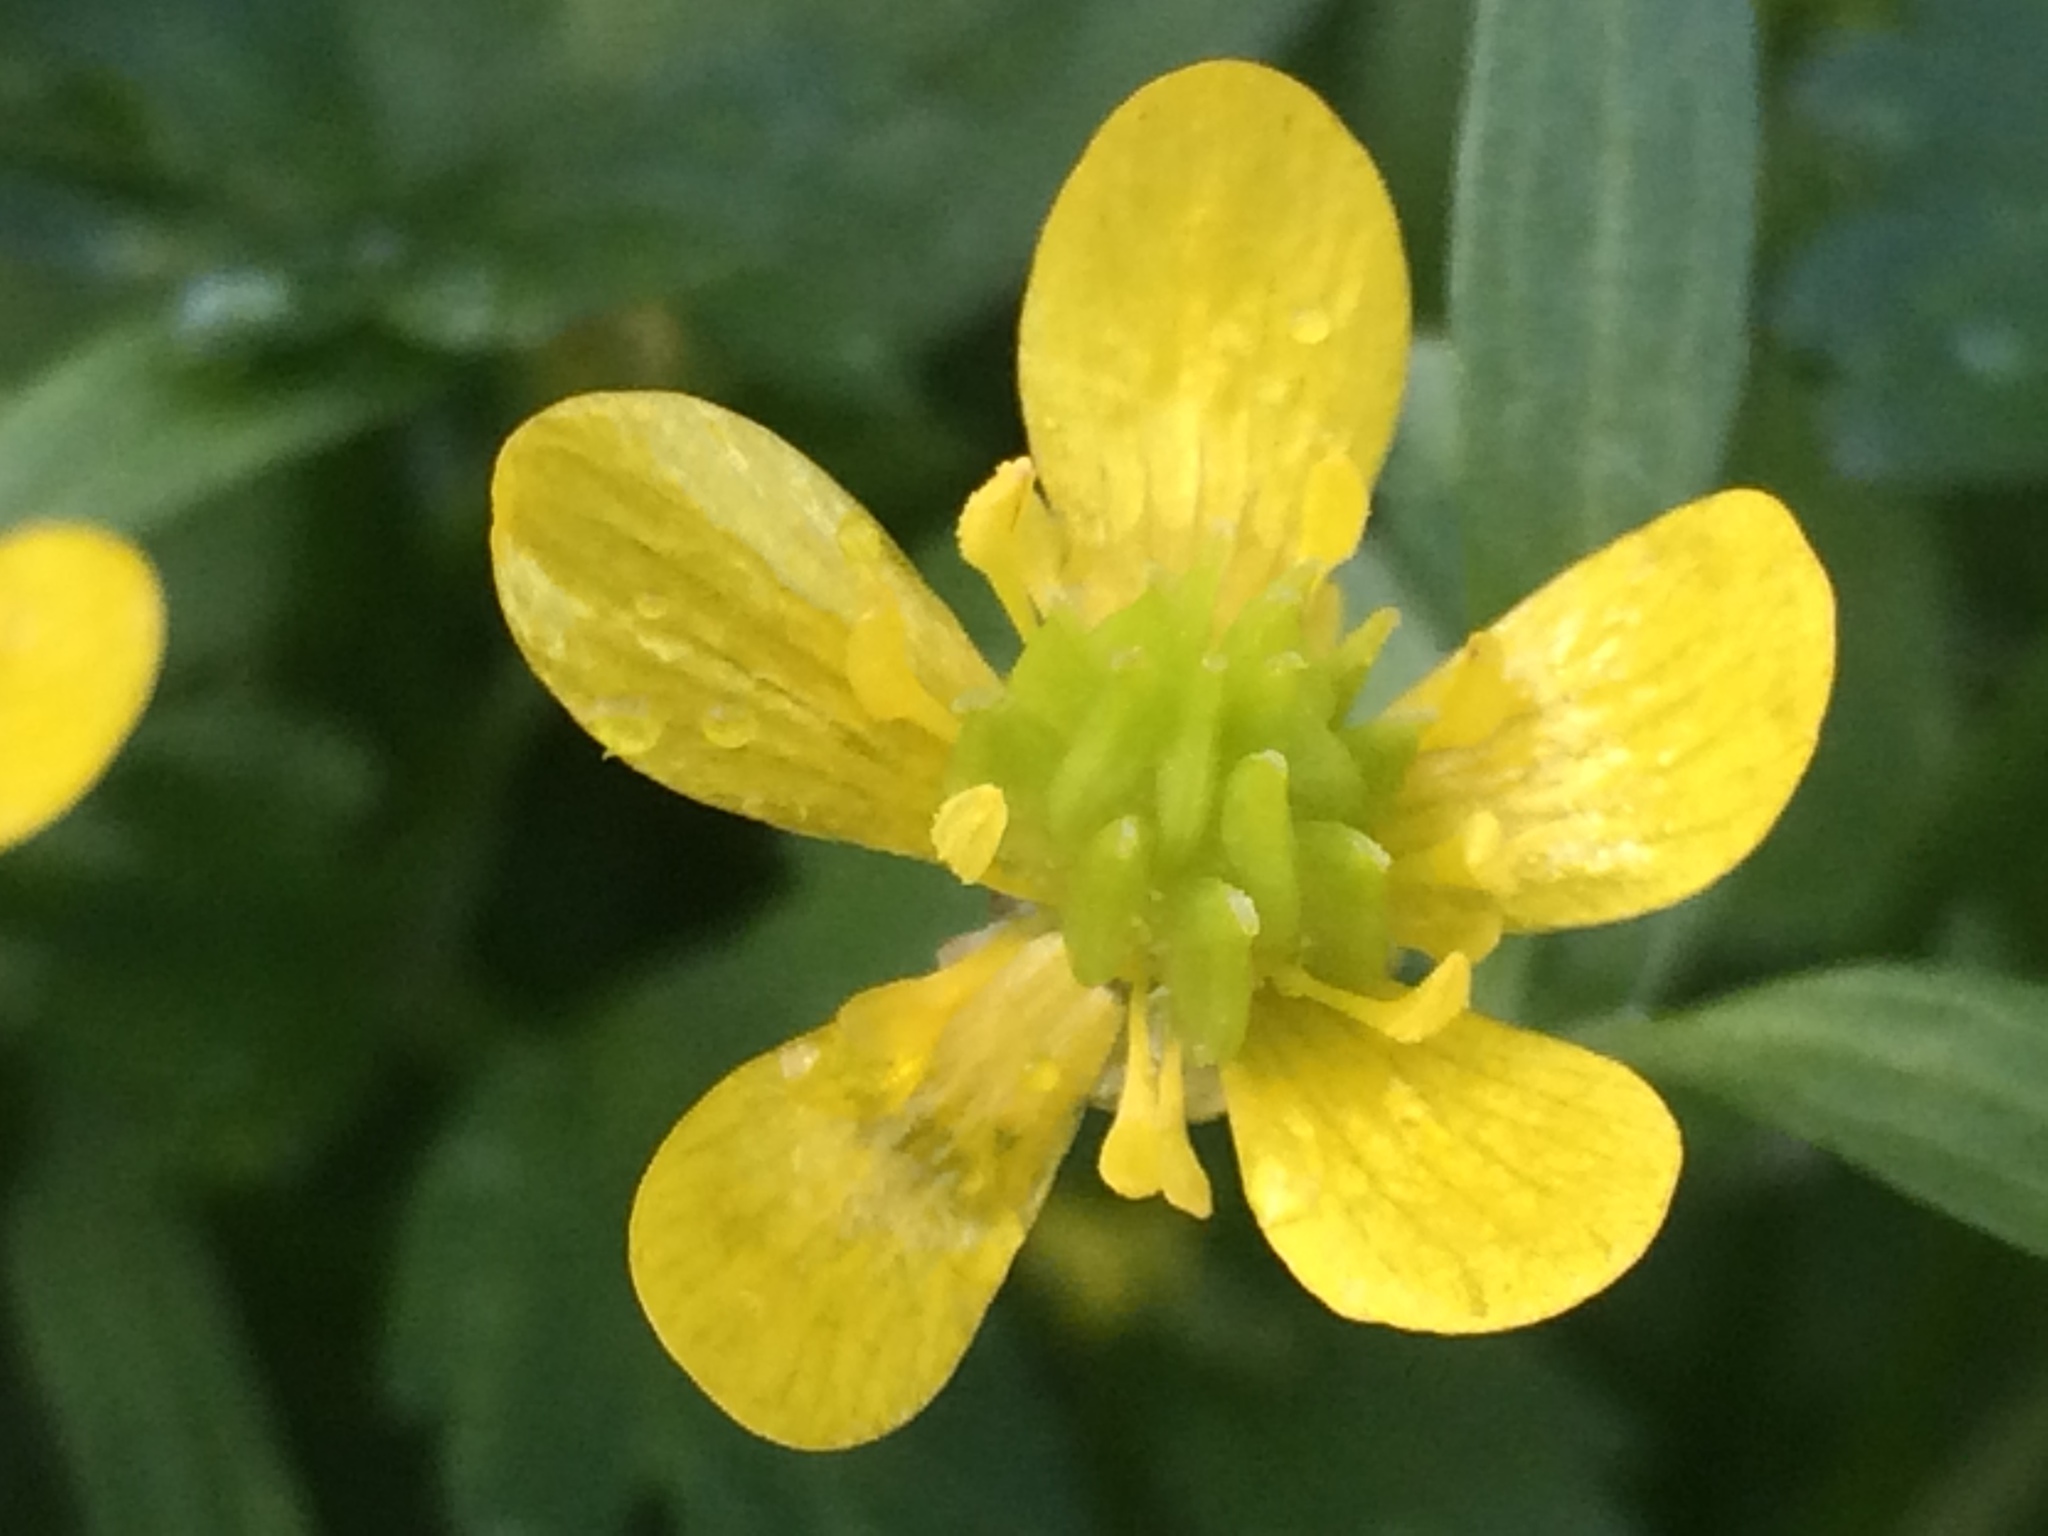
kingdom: Plantae
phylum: Tracheophyta
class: Magnoliopsida
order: Ranunculales
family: Ranunculaceae
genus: Ranunculus
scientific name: Ranunculus muricatus
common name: Rough-fruited buttercup
